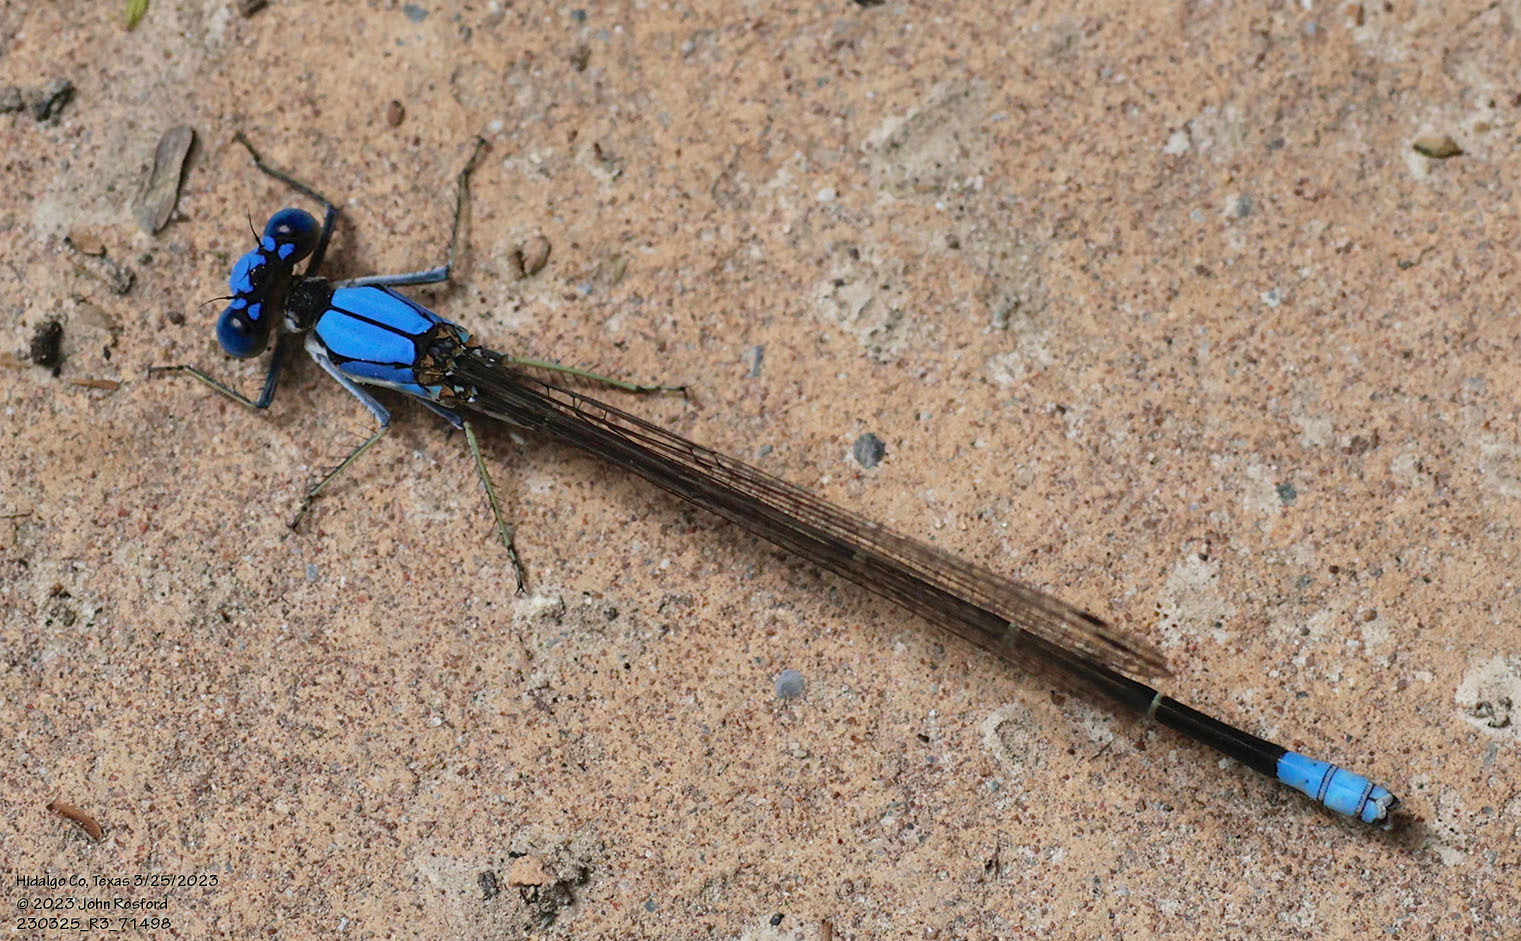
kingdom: Animalia
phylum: Arthropoda
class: Insecta
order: Odonata
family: Coenagrionidae
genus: Argia
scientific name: Argia apicalis
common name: Blue-fronted dancer
